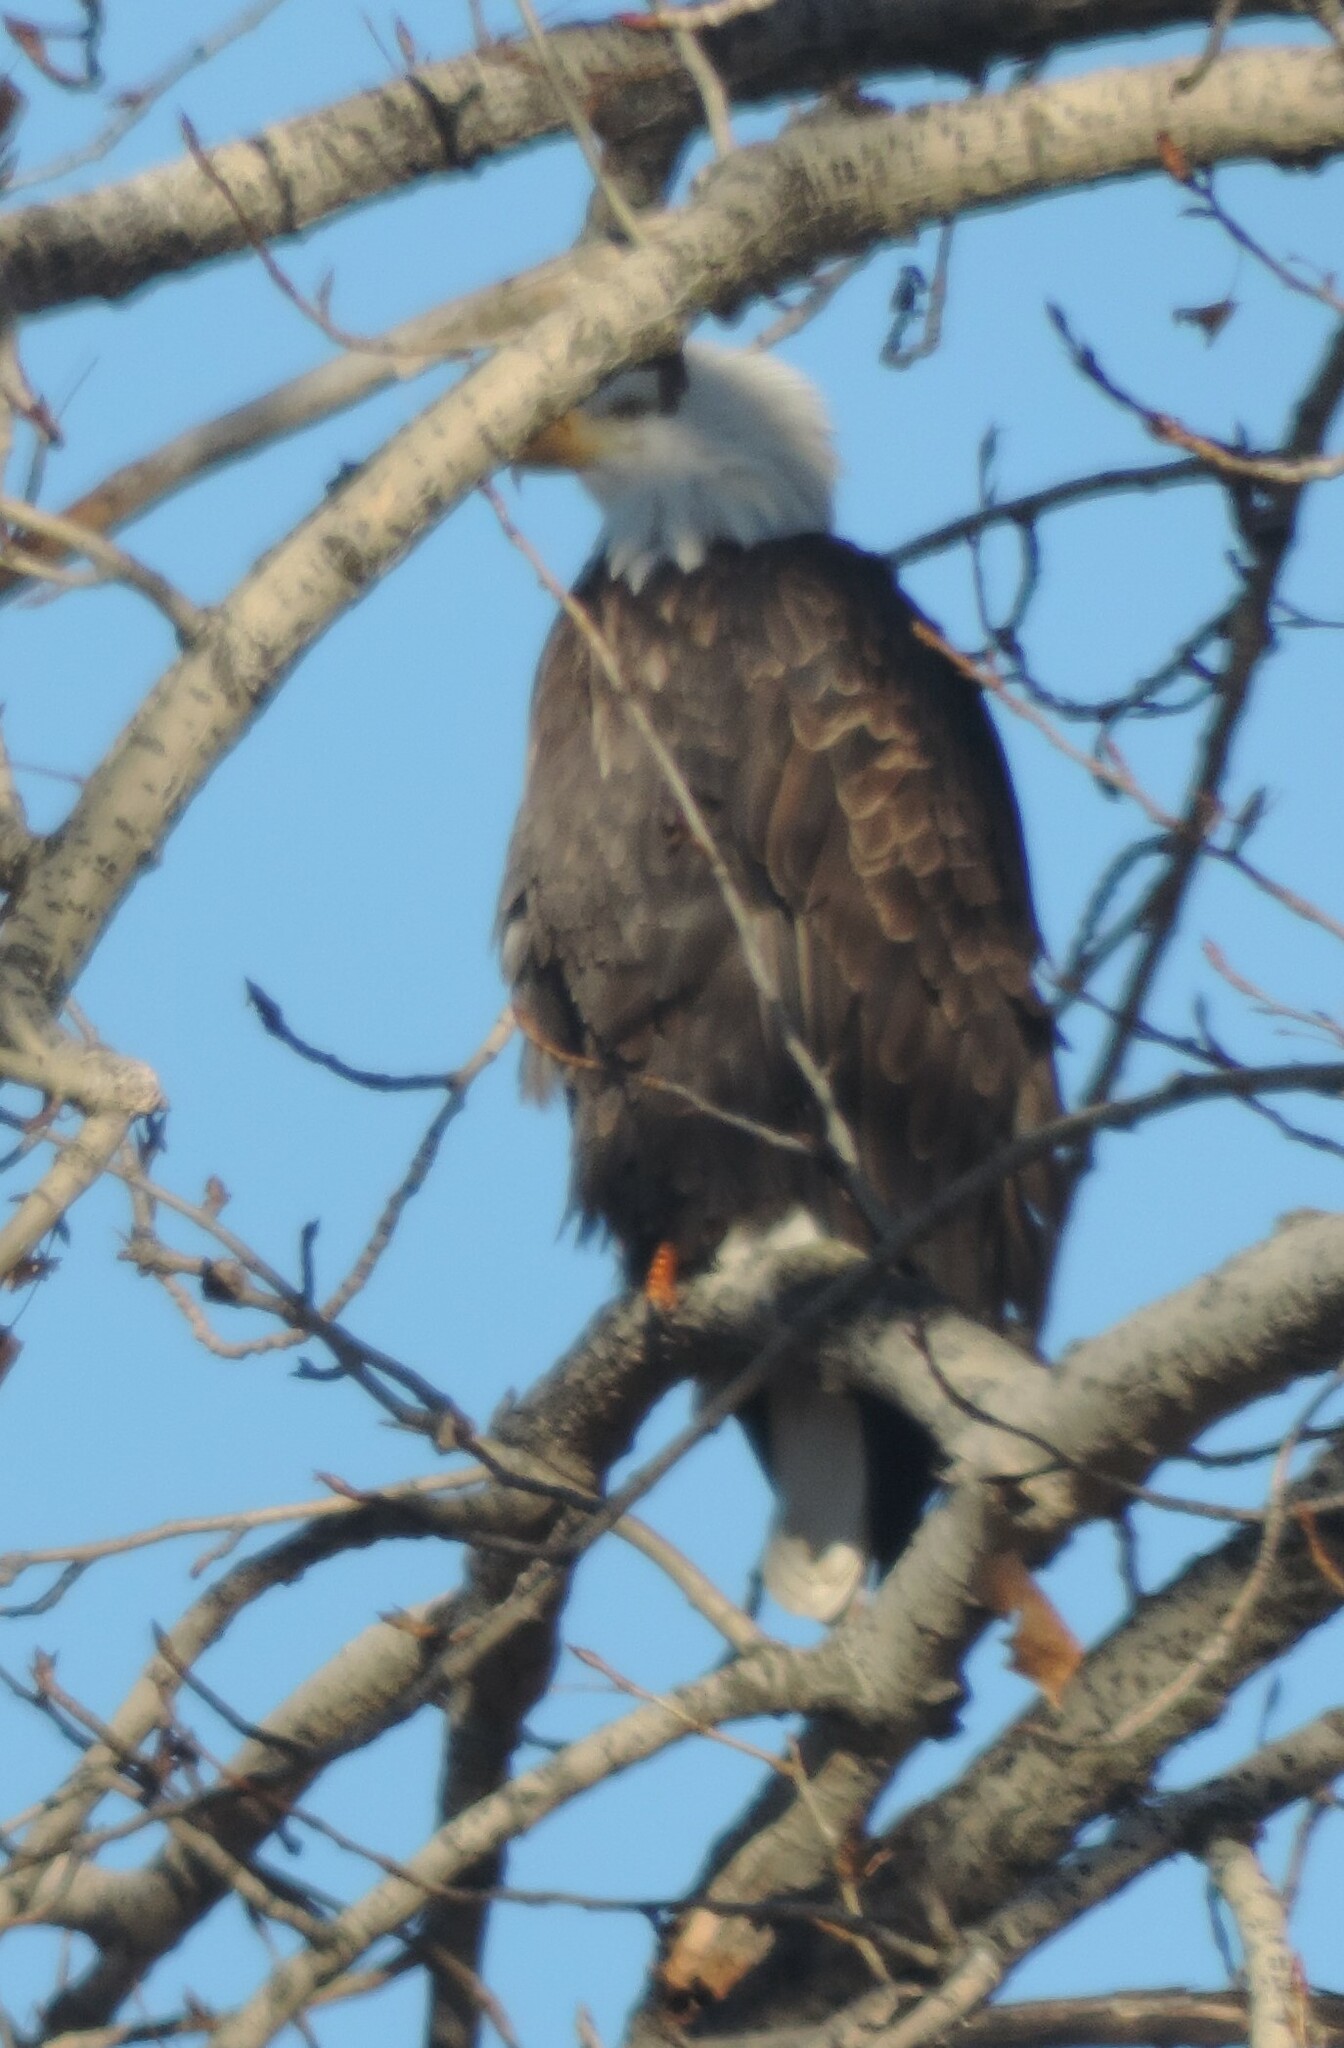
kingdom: Animalia
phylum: Chordata
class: Aves
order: Accipitriformes
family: Accipitridae
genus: Haliaeetus
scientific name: Haliaeetus leucocephalus
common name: Bald eagle
